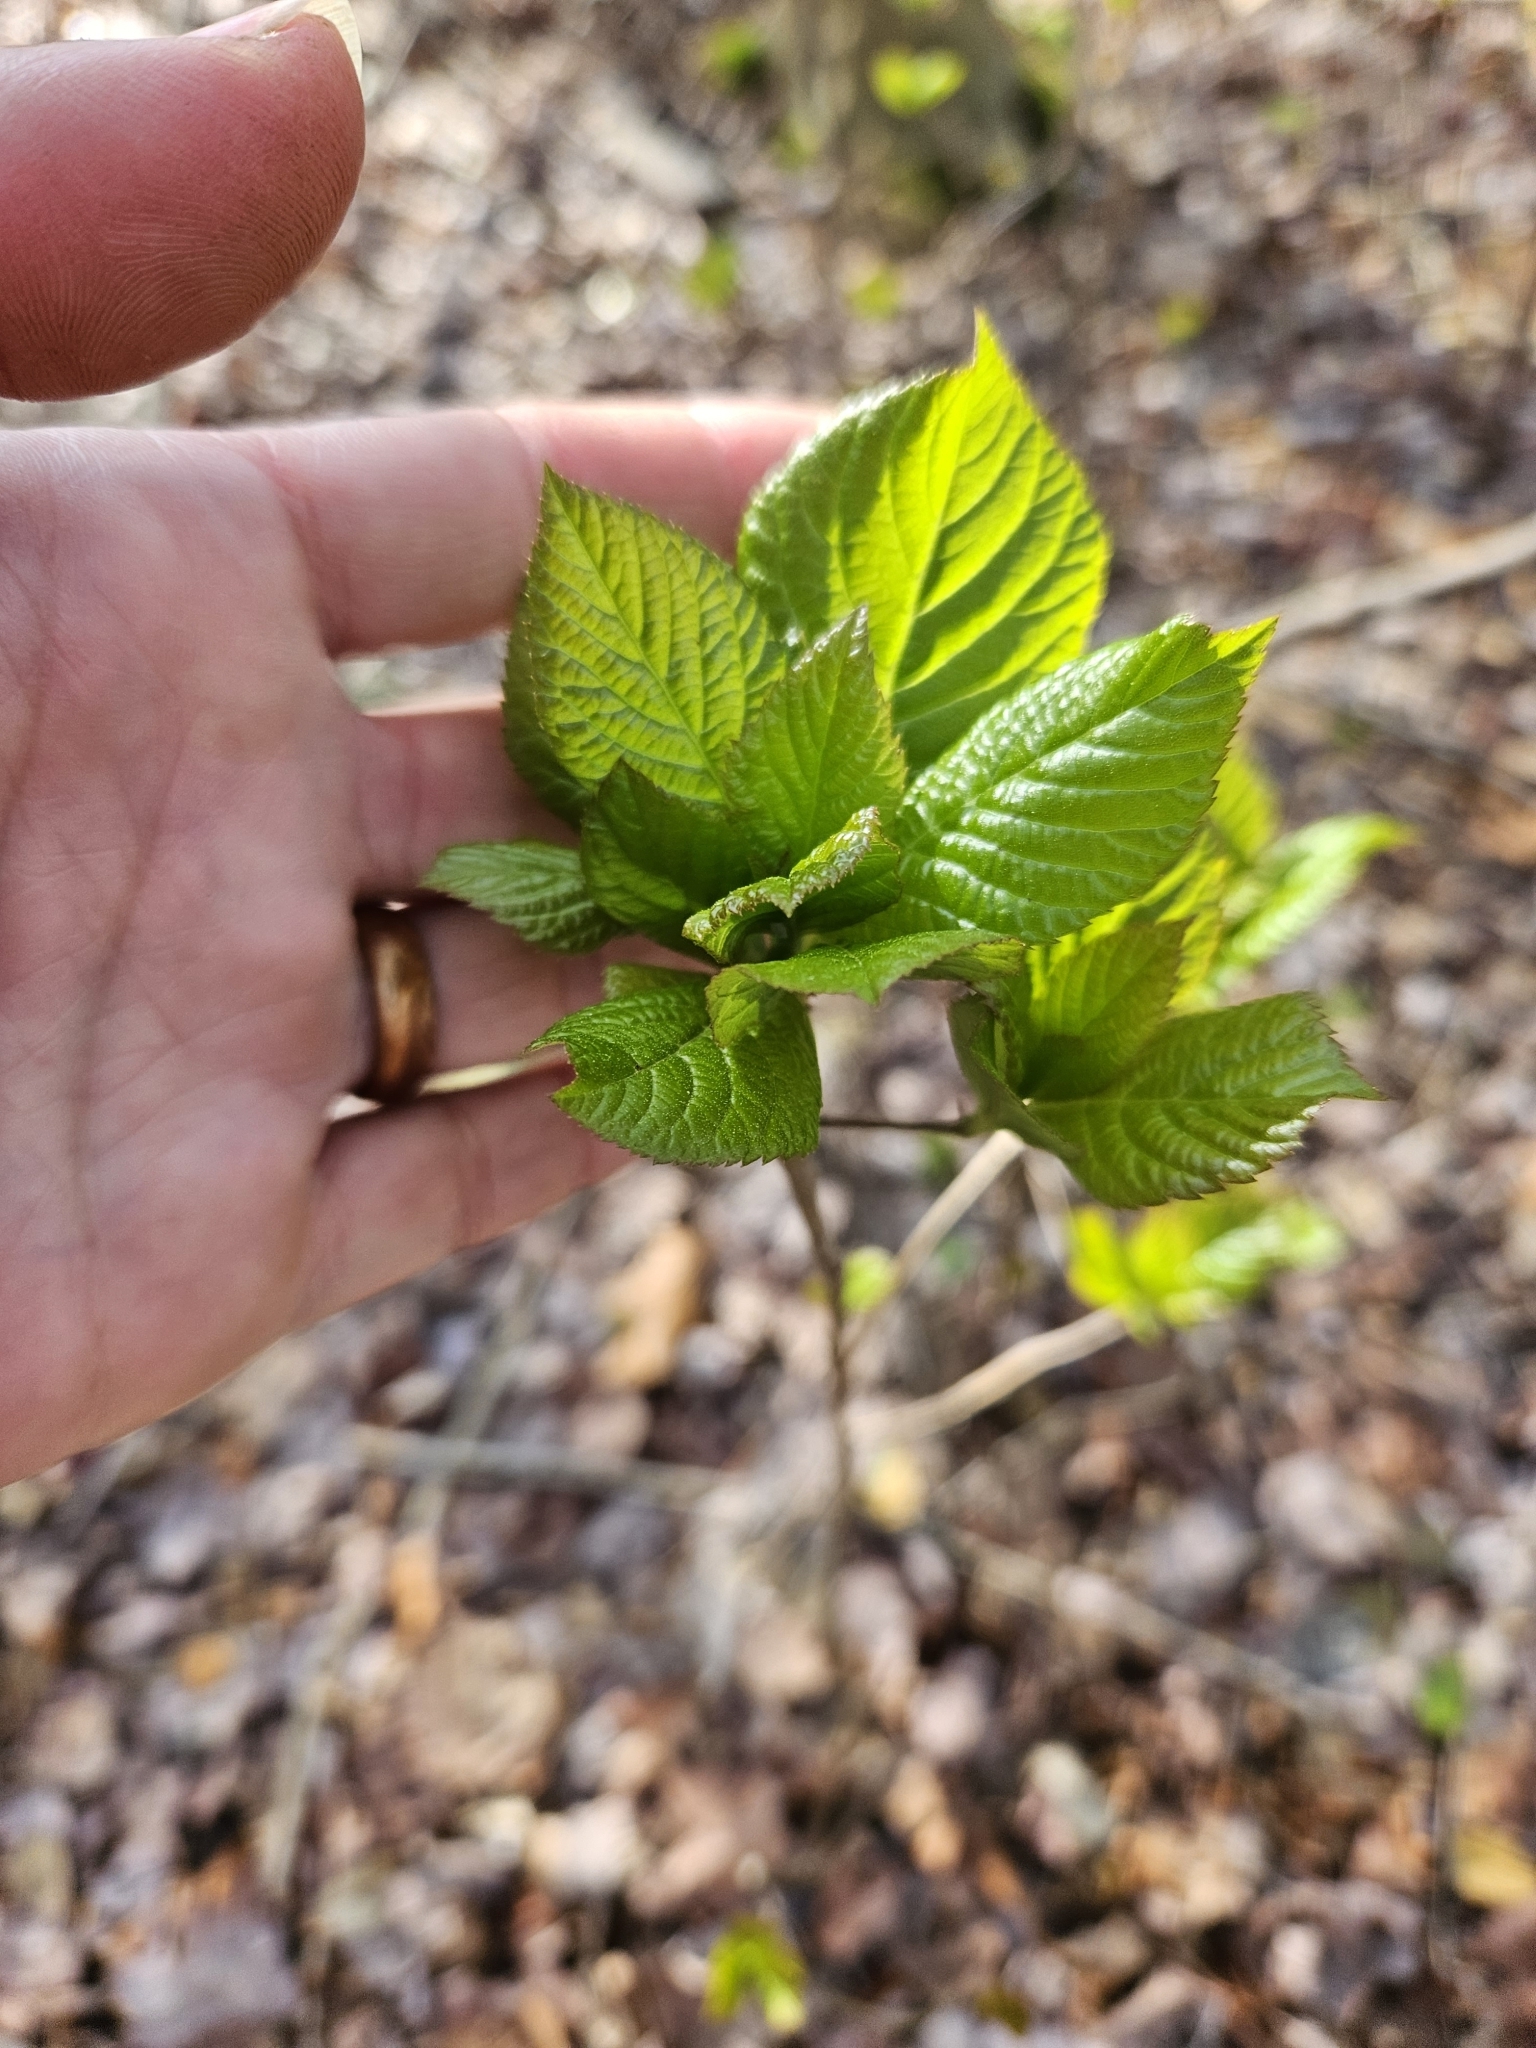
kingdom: Plantae
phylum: Tracheophyta
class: Magnoliopsida
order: Ericales
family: Clethraceae
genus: Clethra
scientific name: Clethra alnifolia
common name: Sweet pepperbush
